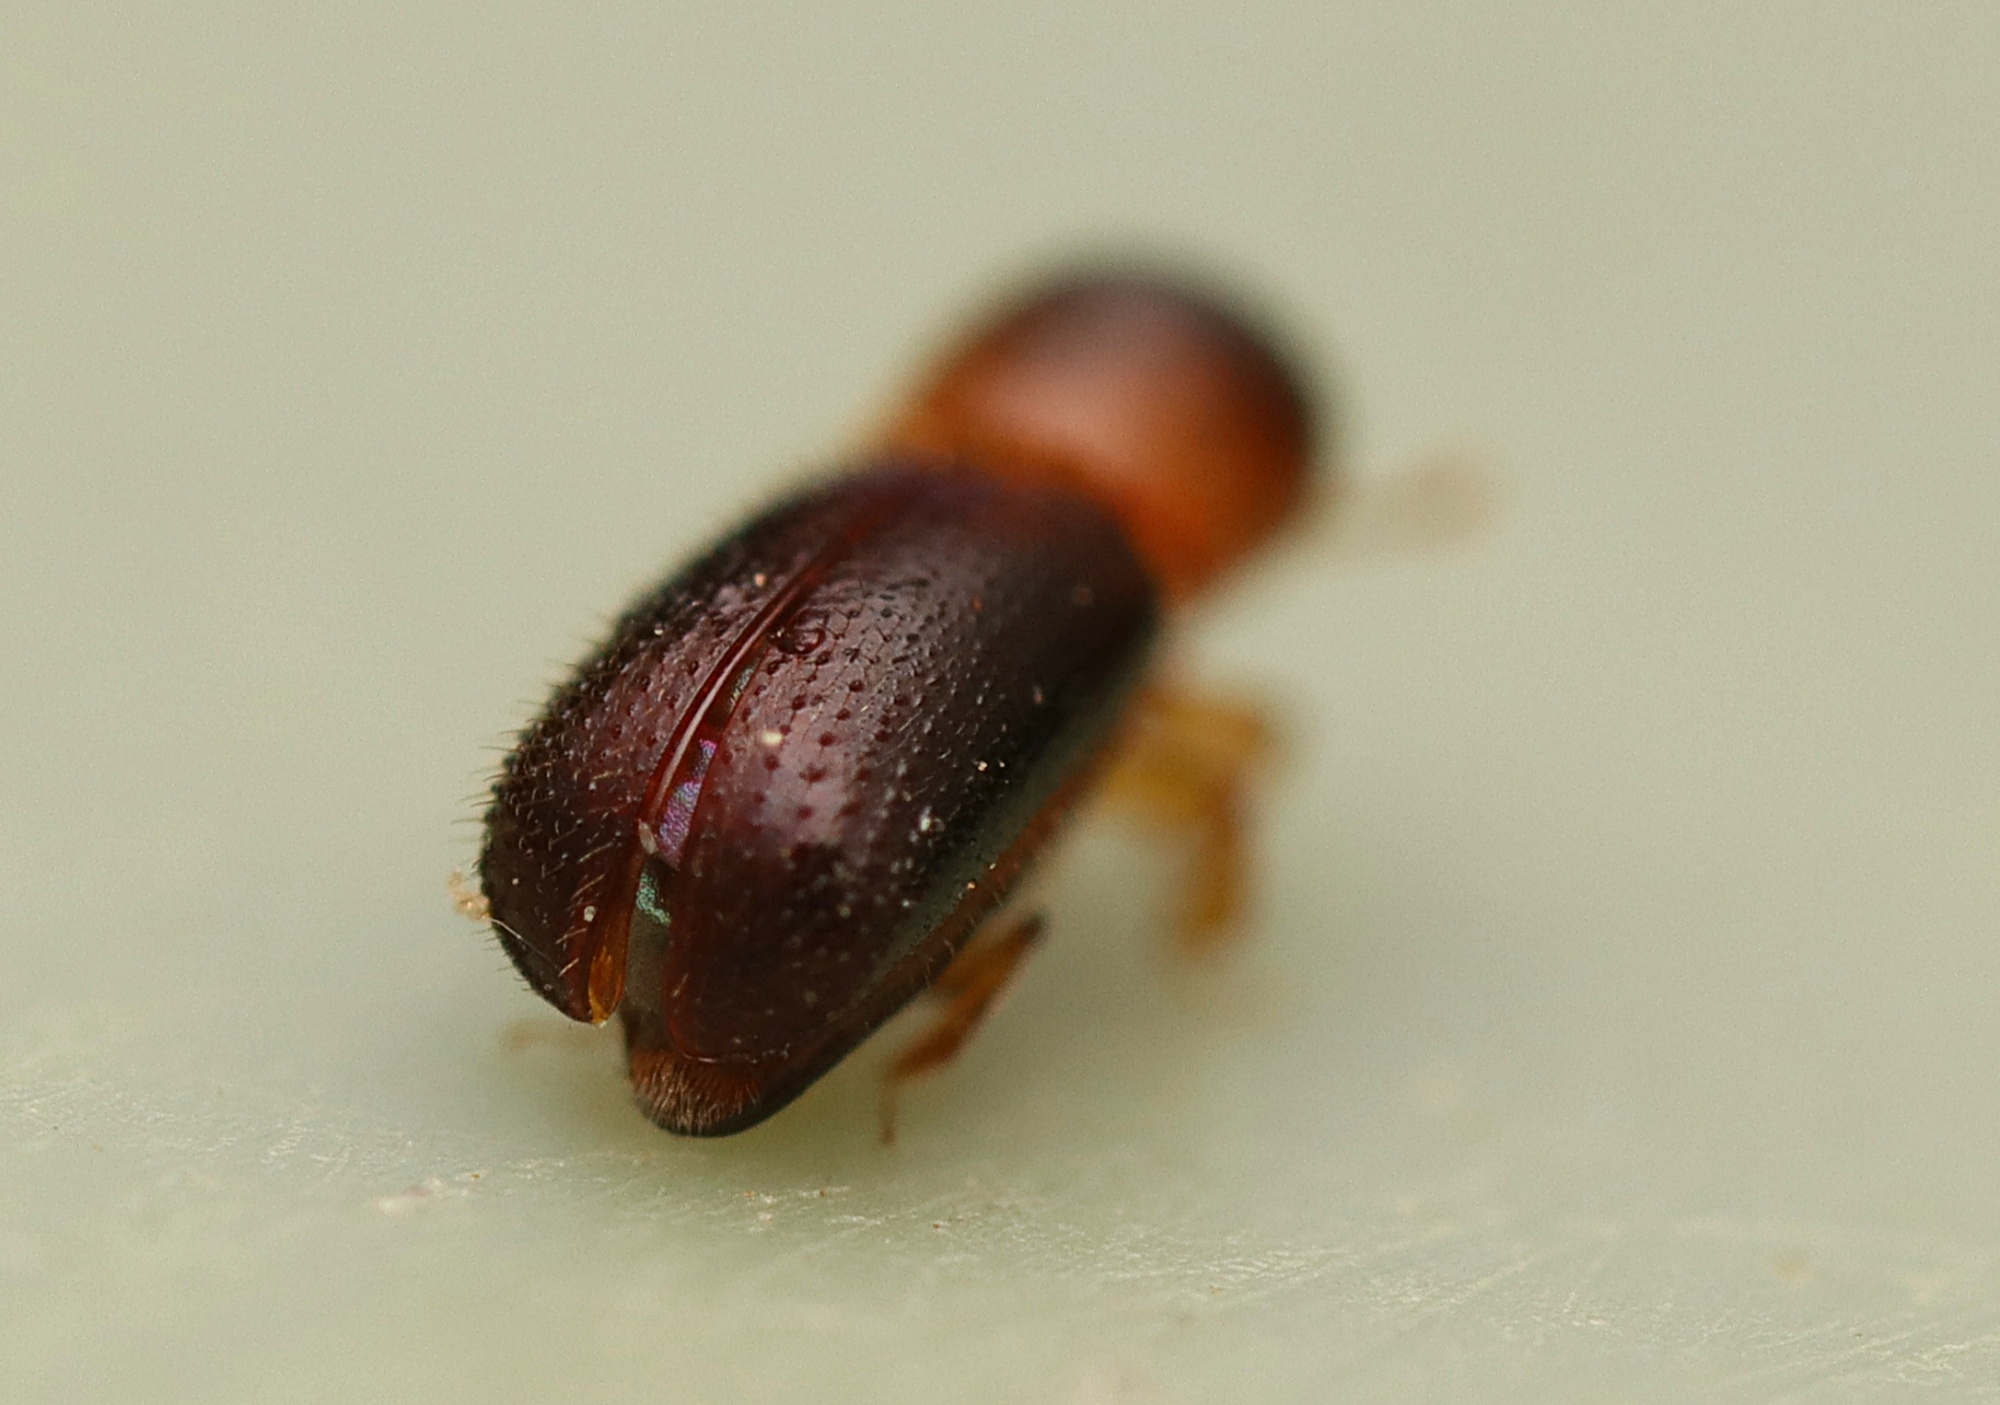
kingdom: Animalia
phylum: Arthropoda
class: Insecta
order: Coleoptera
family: Curculionidae
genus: Microperus
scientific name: Microperus eucalyptica
